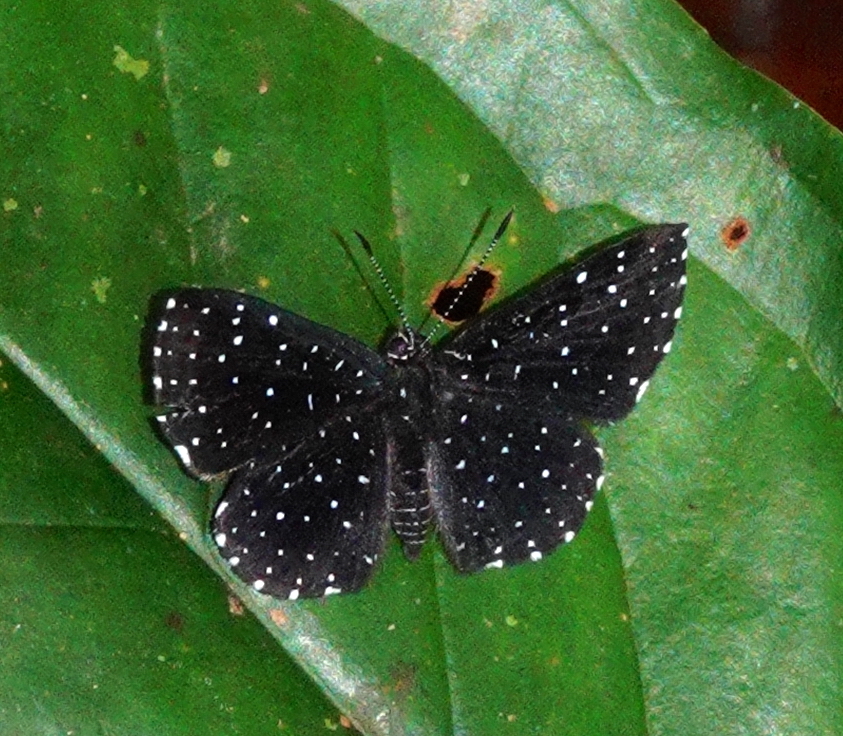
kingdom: Animalia
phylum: Arthropoda
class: Insecta
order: Lepidoptera
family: Riodinidae
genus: Echydna
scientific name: Echydna punctata
